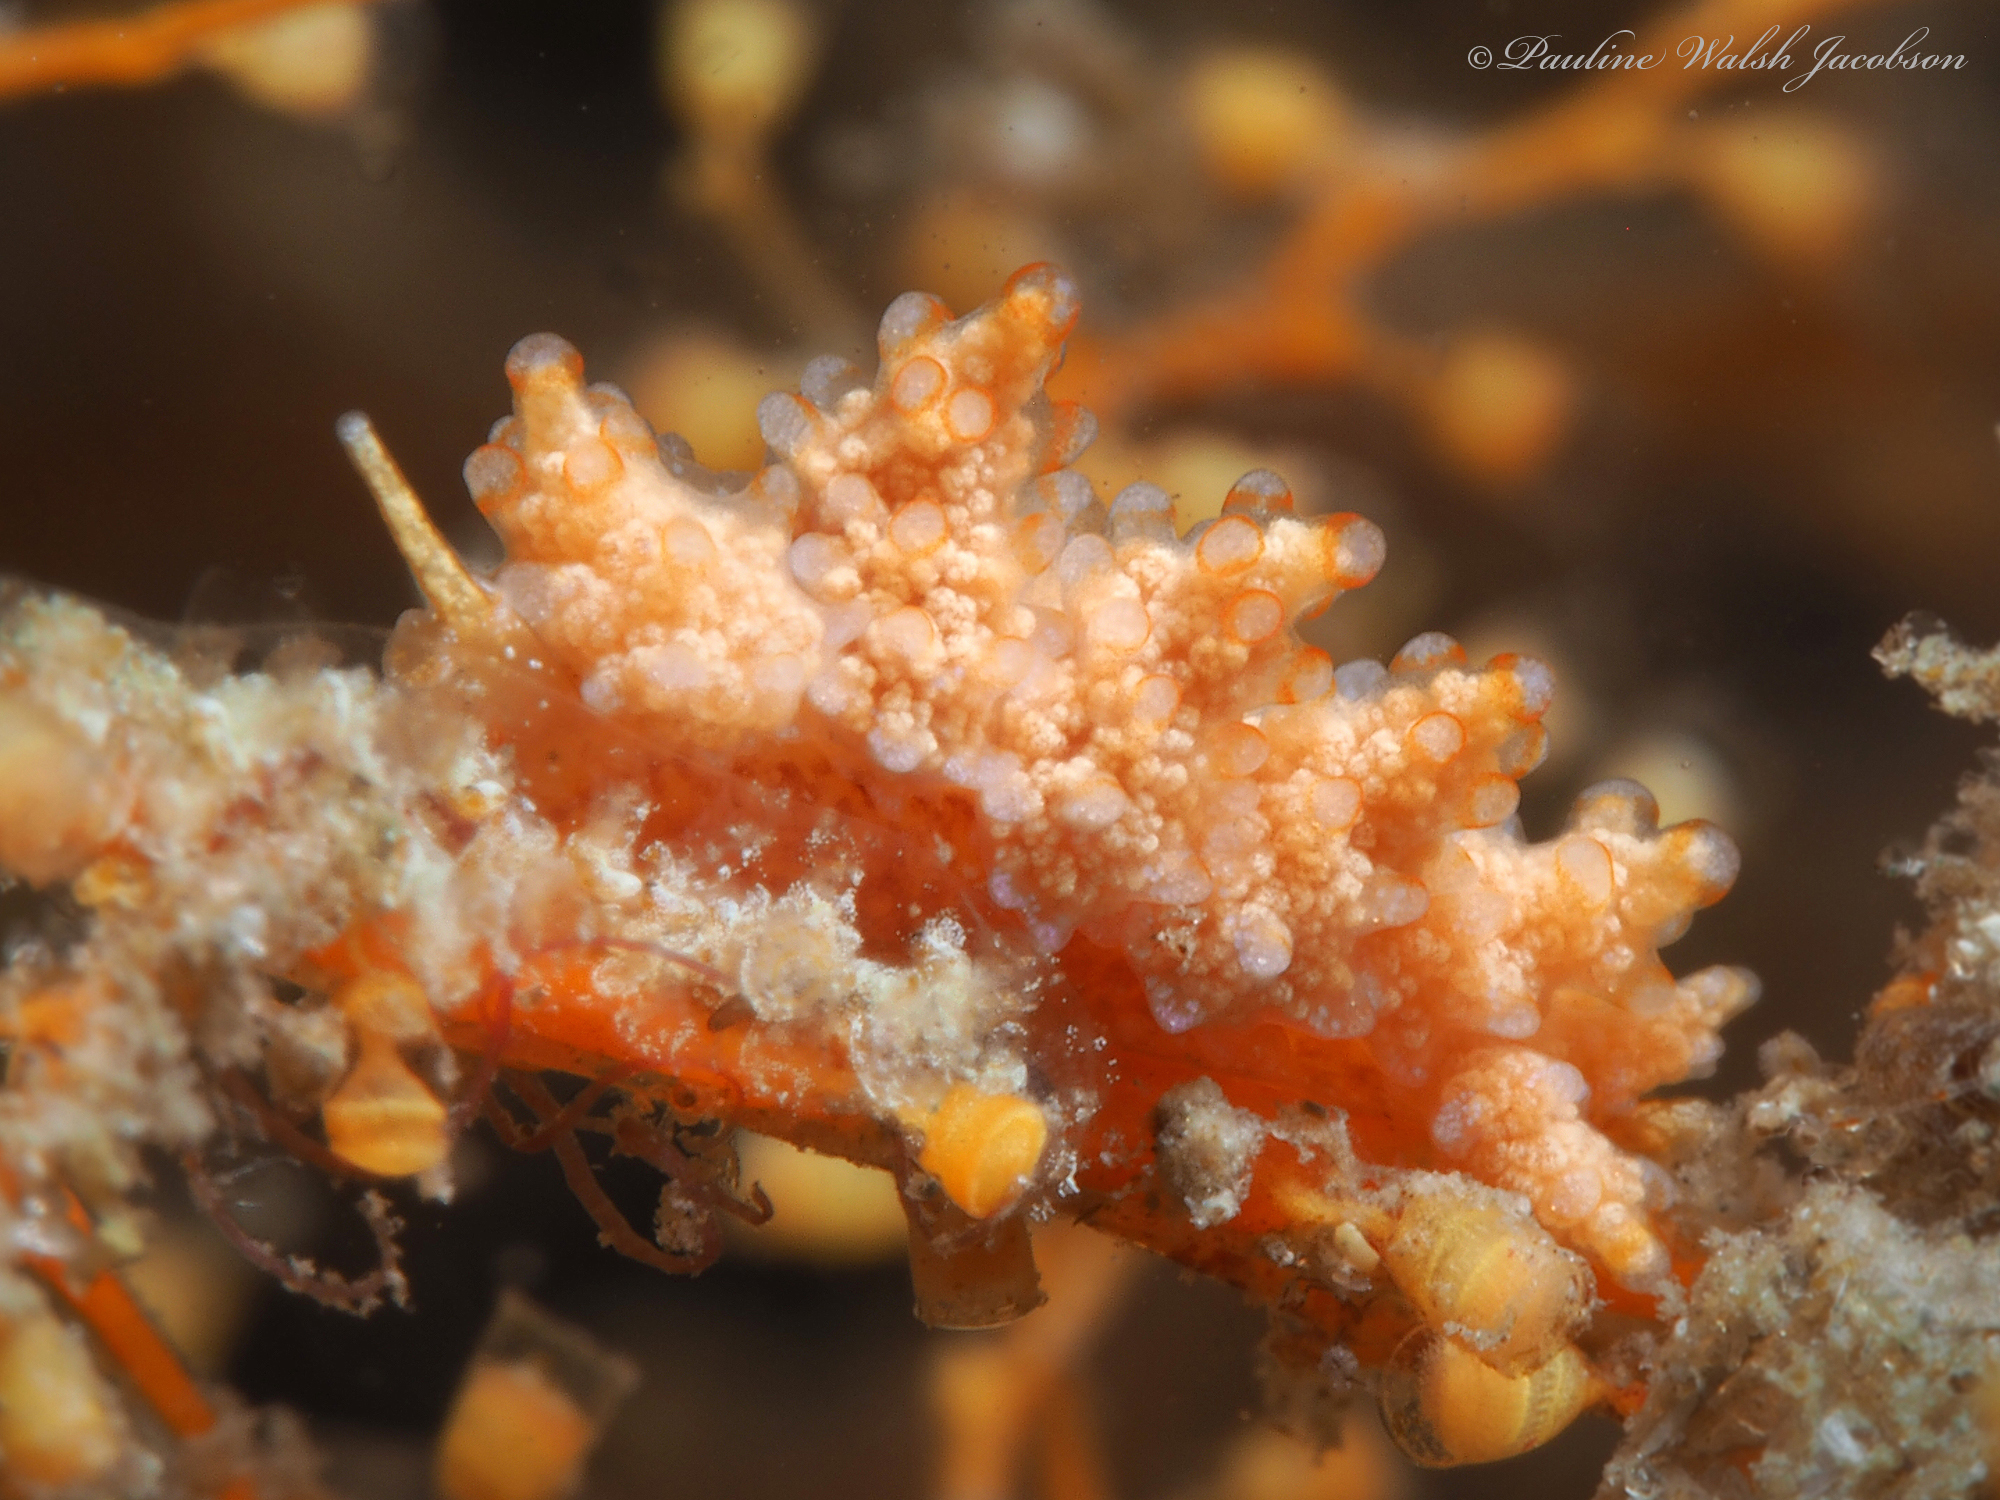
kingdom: Animalia
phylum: Mollusca
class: Gastropoda
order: Nudibranchia
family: Dotidae
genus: Doto
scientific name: Doto torrelavega
